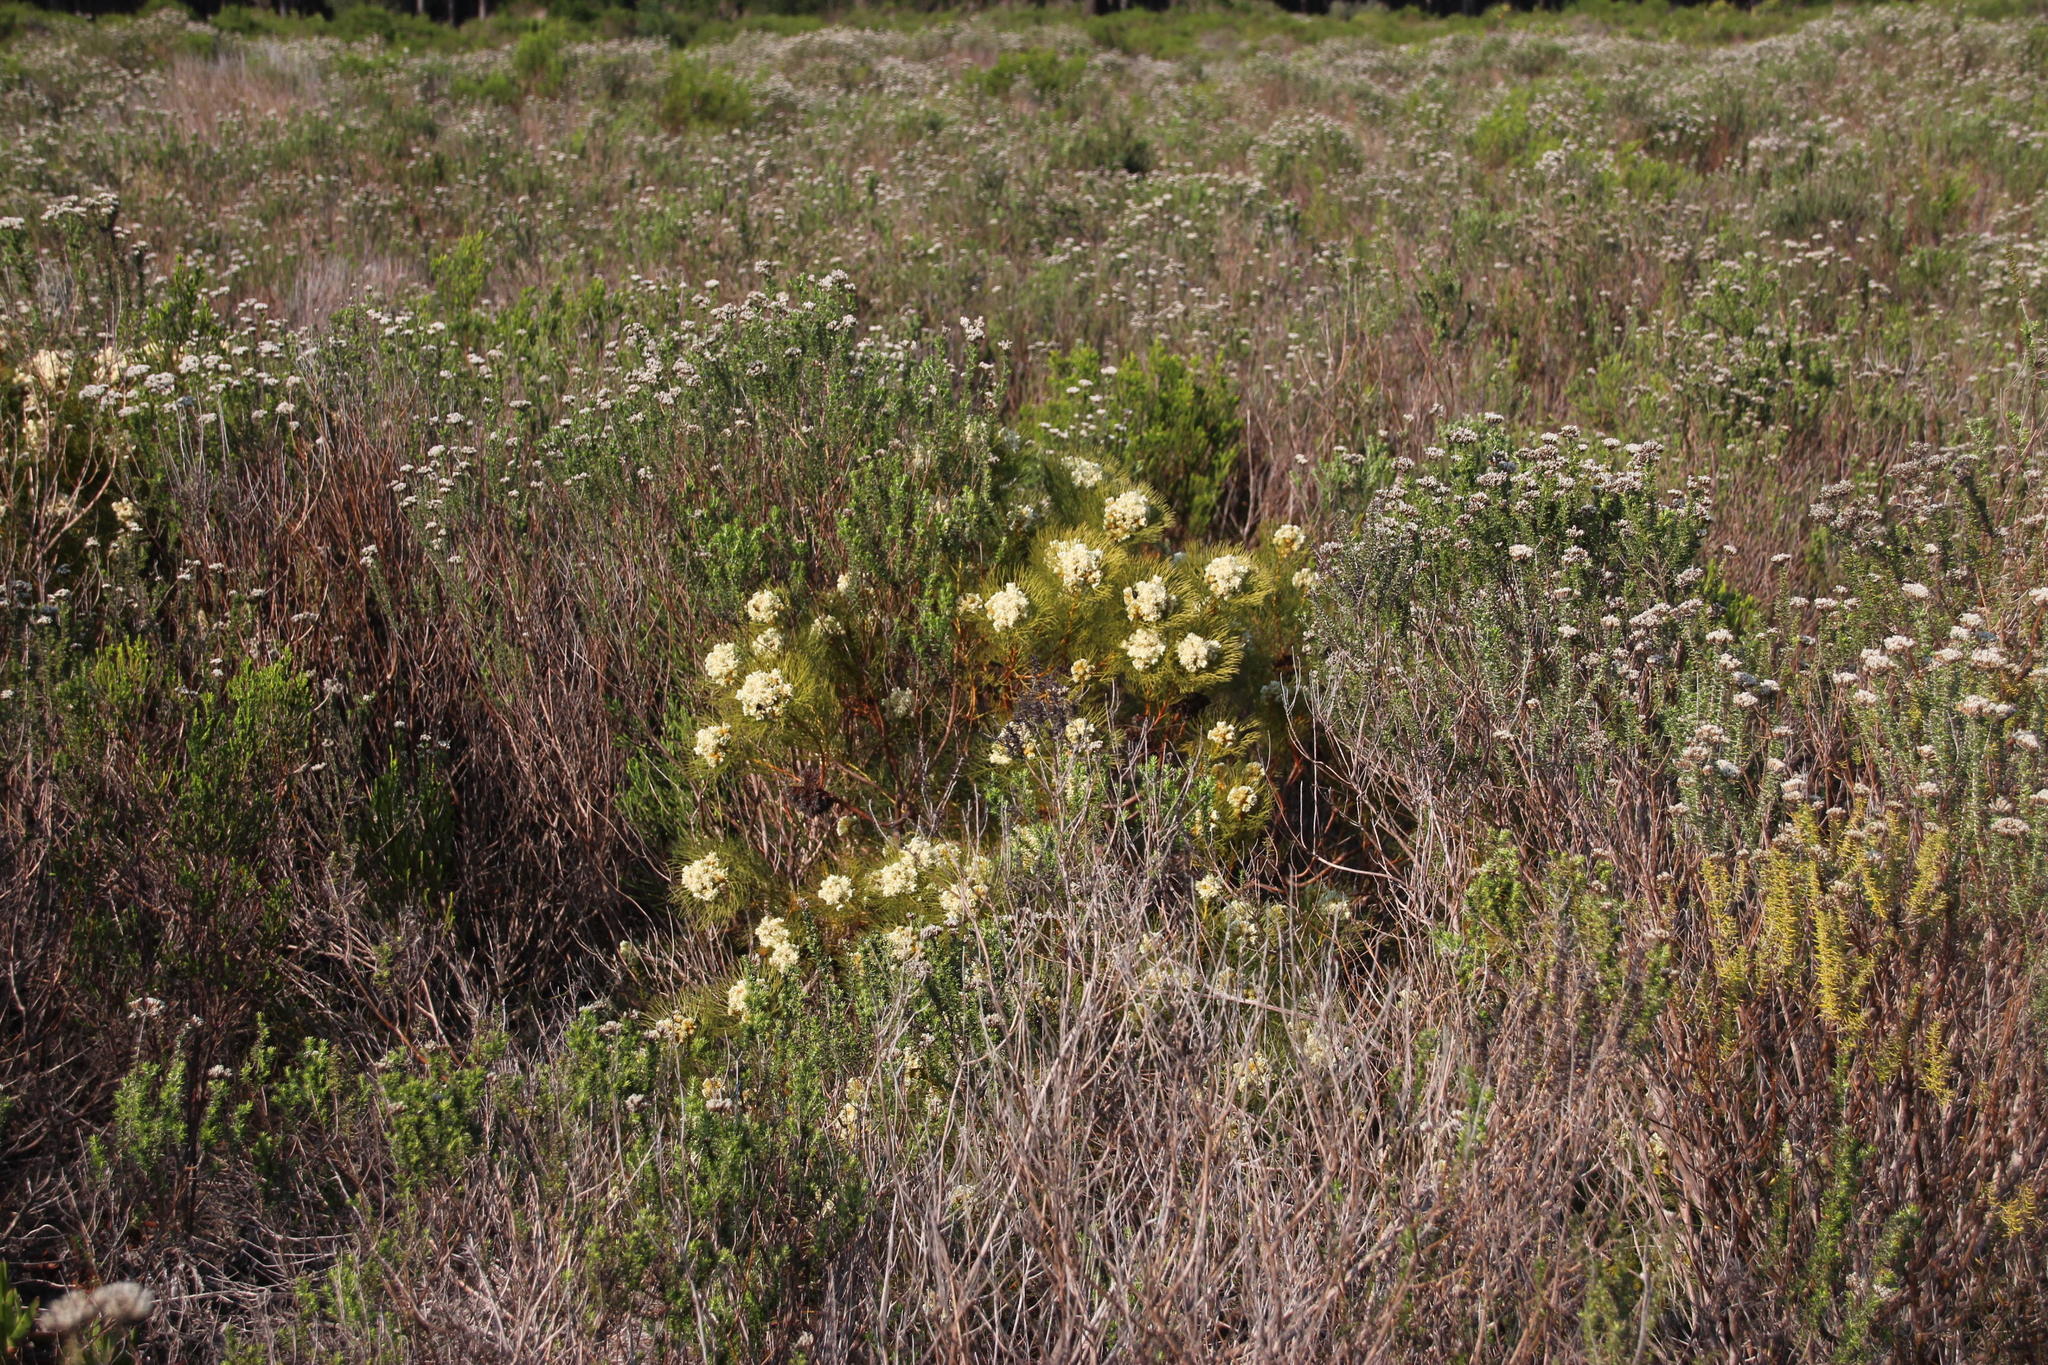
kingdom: Plantae
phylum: Tracheophyta
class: Magnoliopsida
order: Proteales
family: Proteaceae
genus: Serruria
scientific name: Serruria glomerata
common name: Cluster spiderhead
